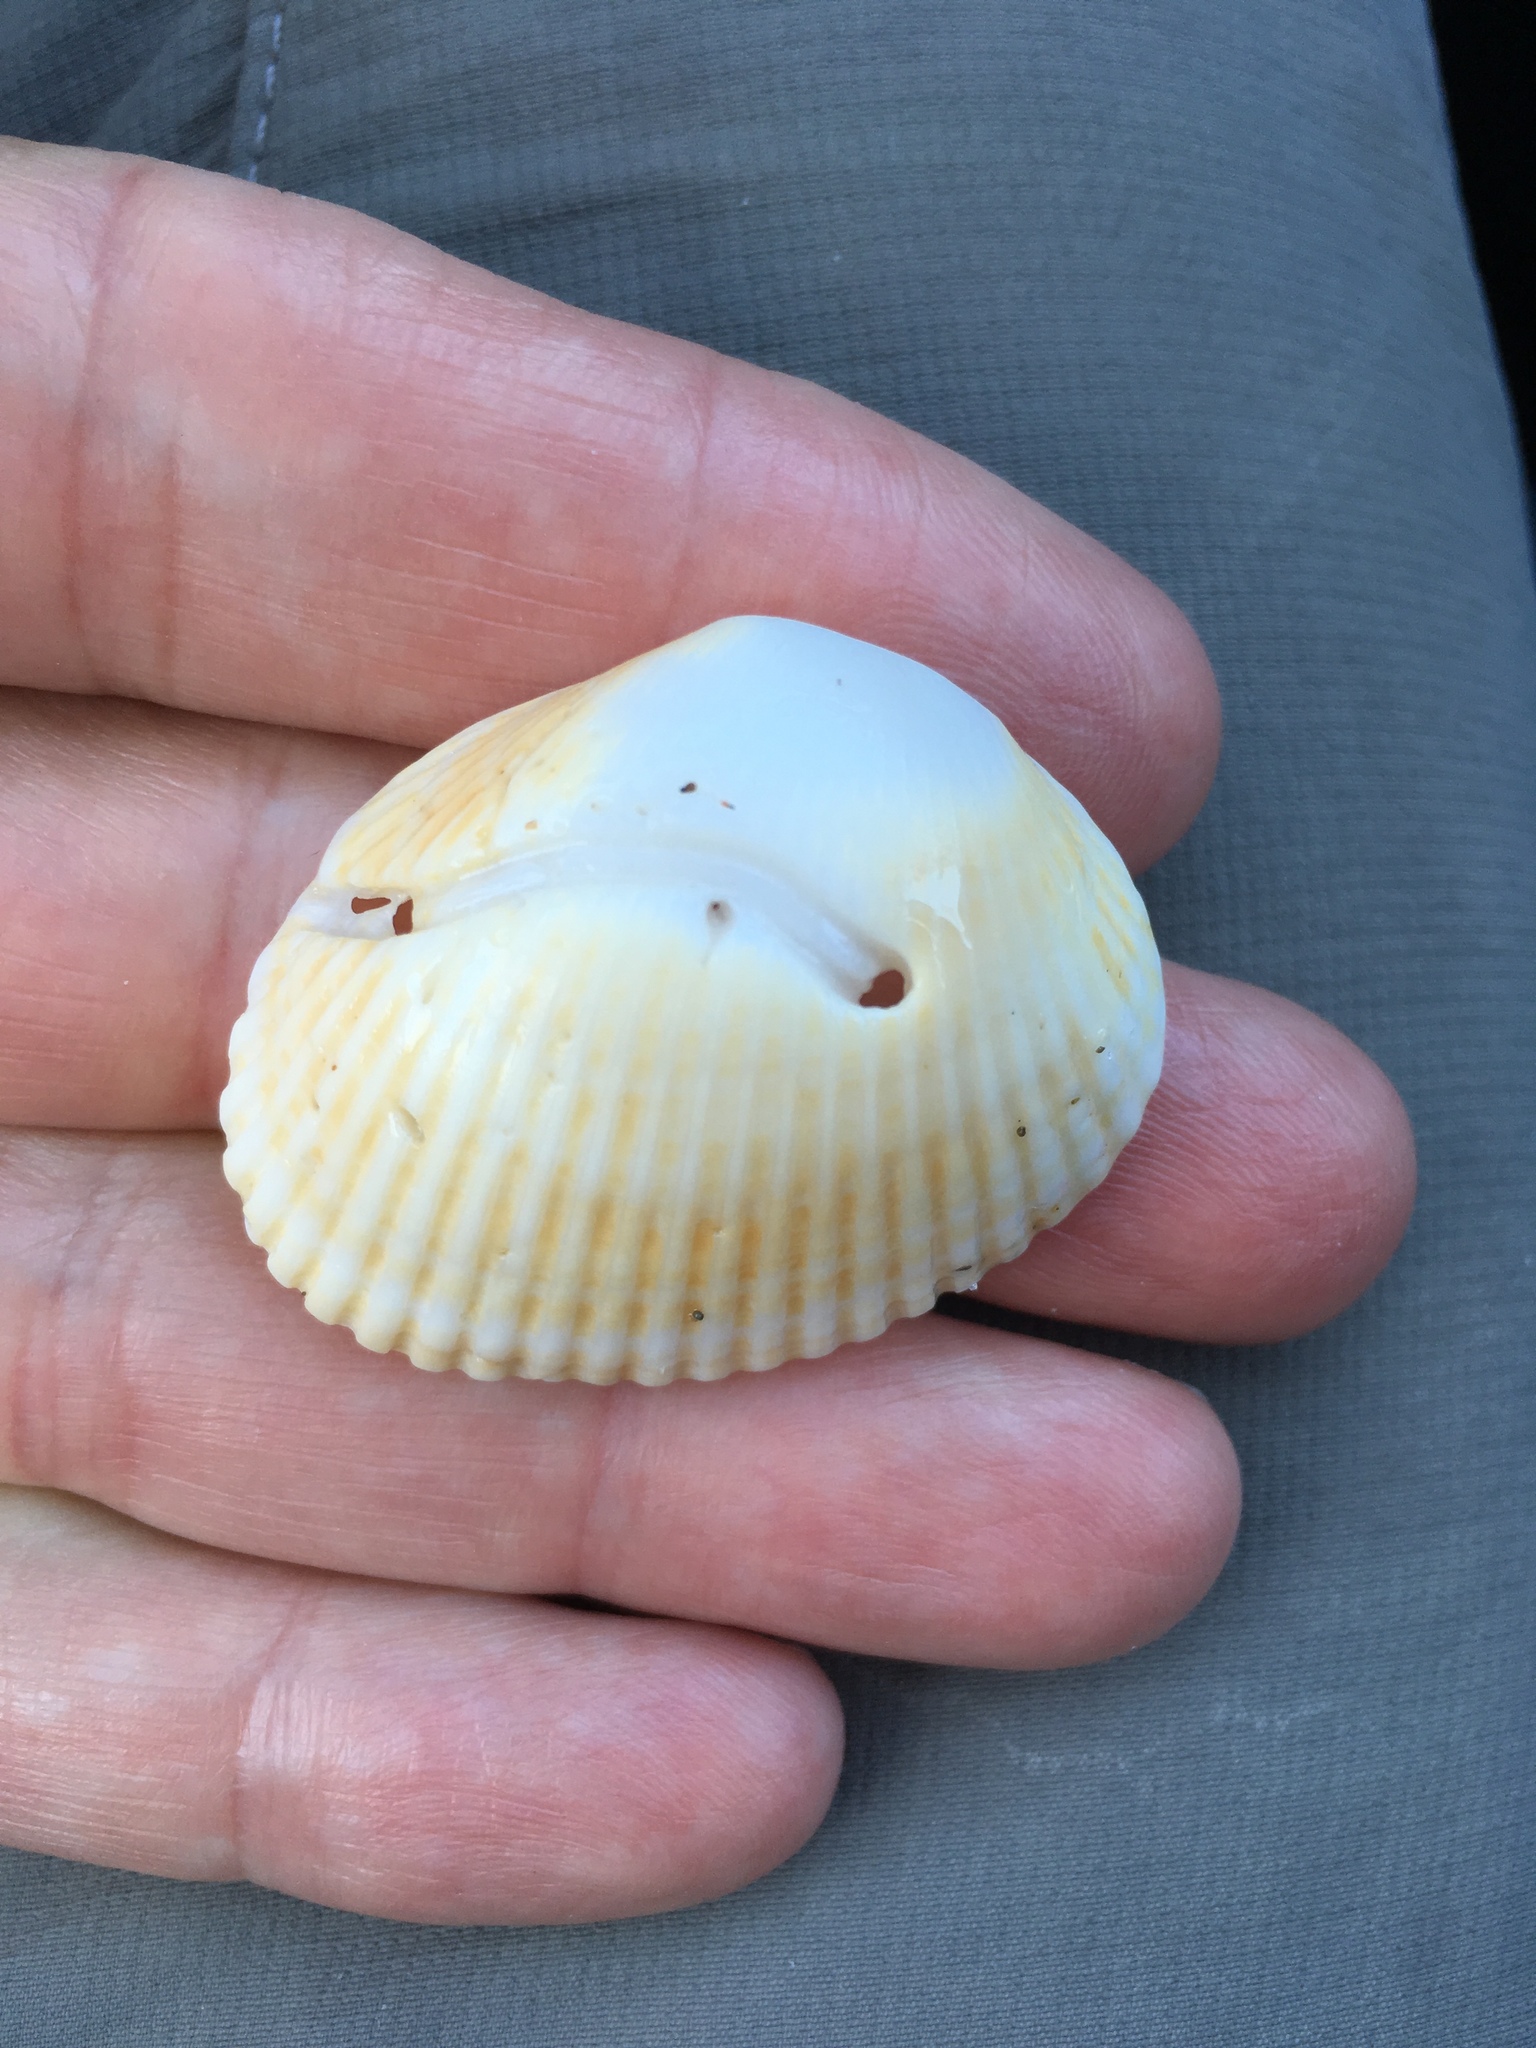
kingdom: Animalia
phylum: Mollusca
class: Bivalvia
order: Arcida
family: Arcidae
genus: Lunarca
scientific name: Lunarca ovalis
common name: Blood ark
